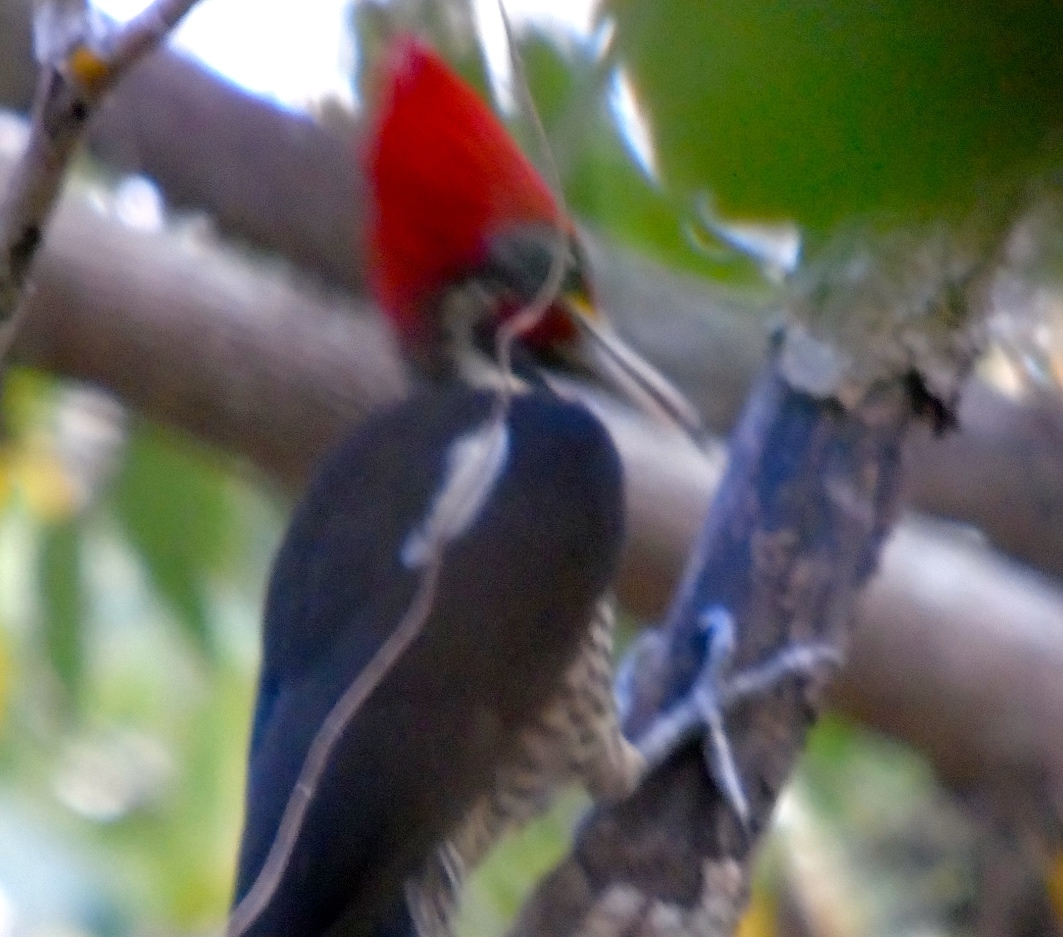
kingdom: Animalia
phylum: Chordata
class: Aves
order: Piciformes
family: Picidae
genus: Dryocopus
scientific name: Dryocopus lineatus
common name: Lineated woodpecker
